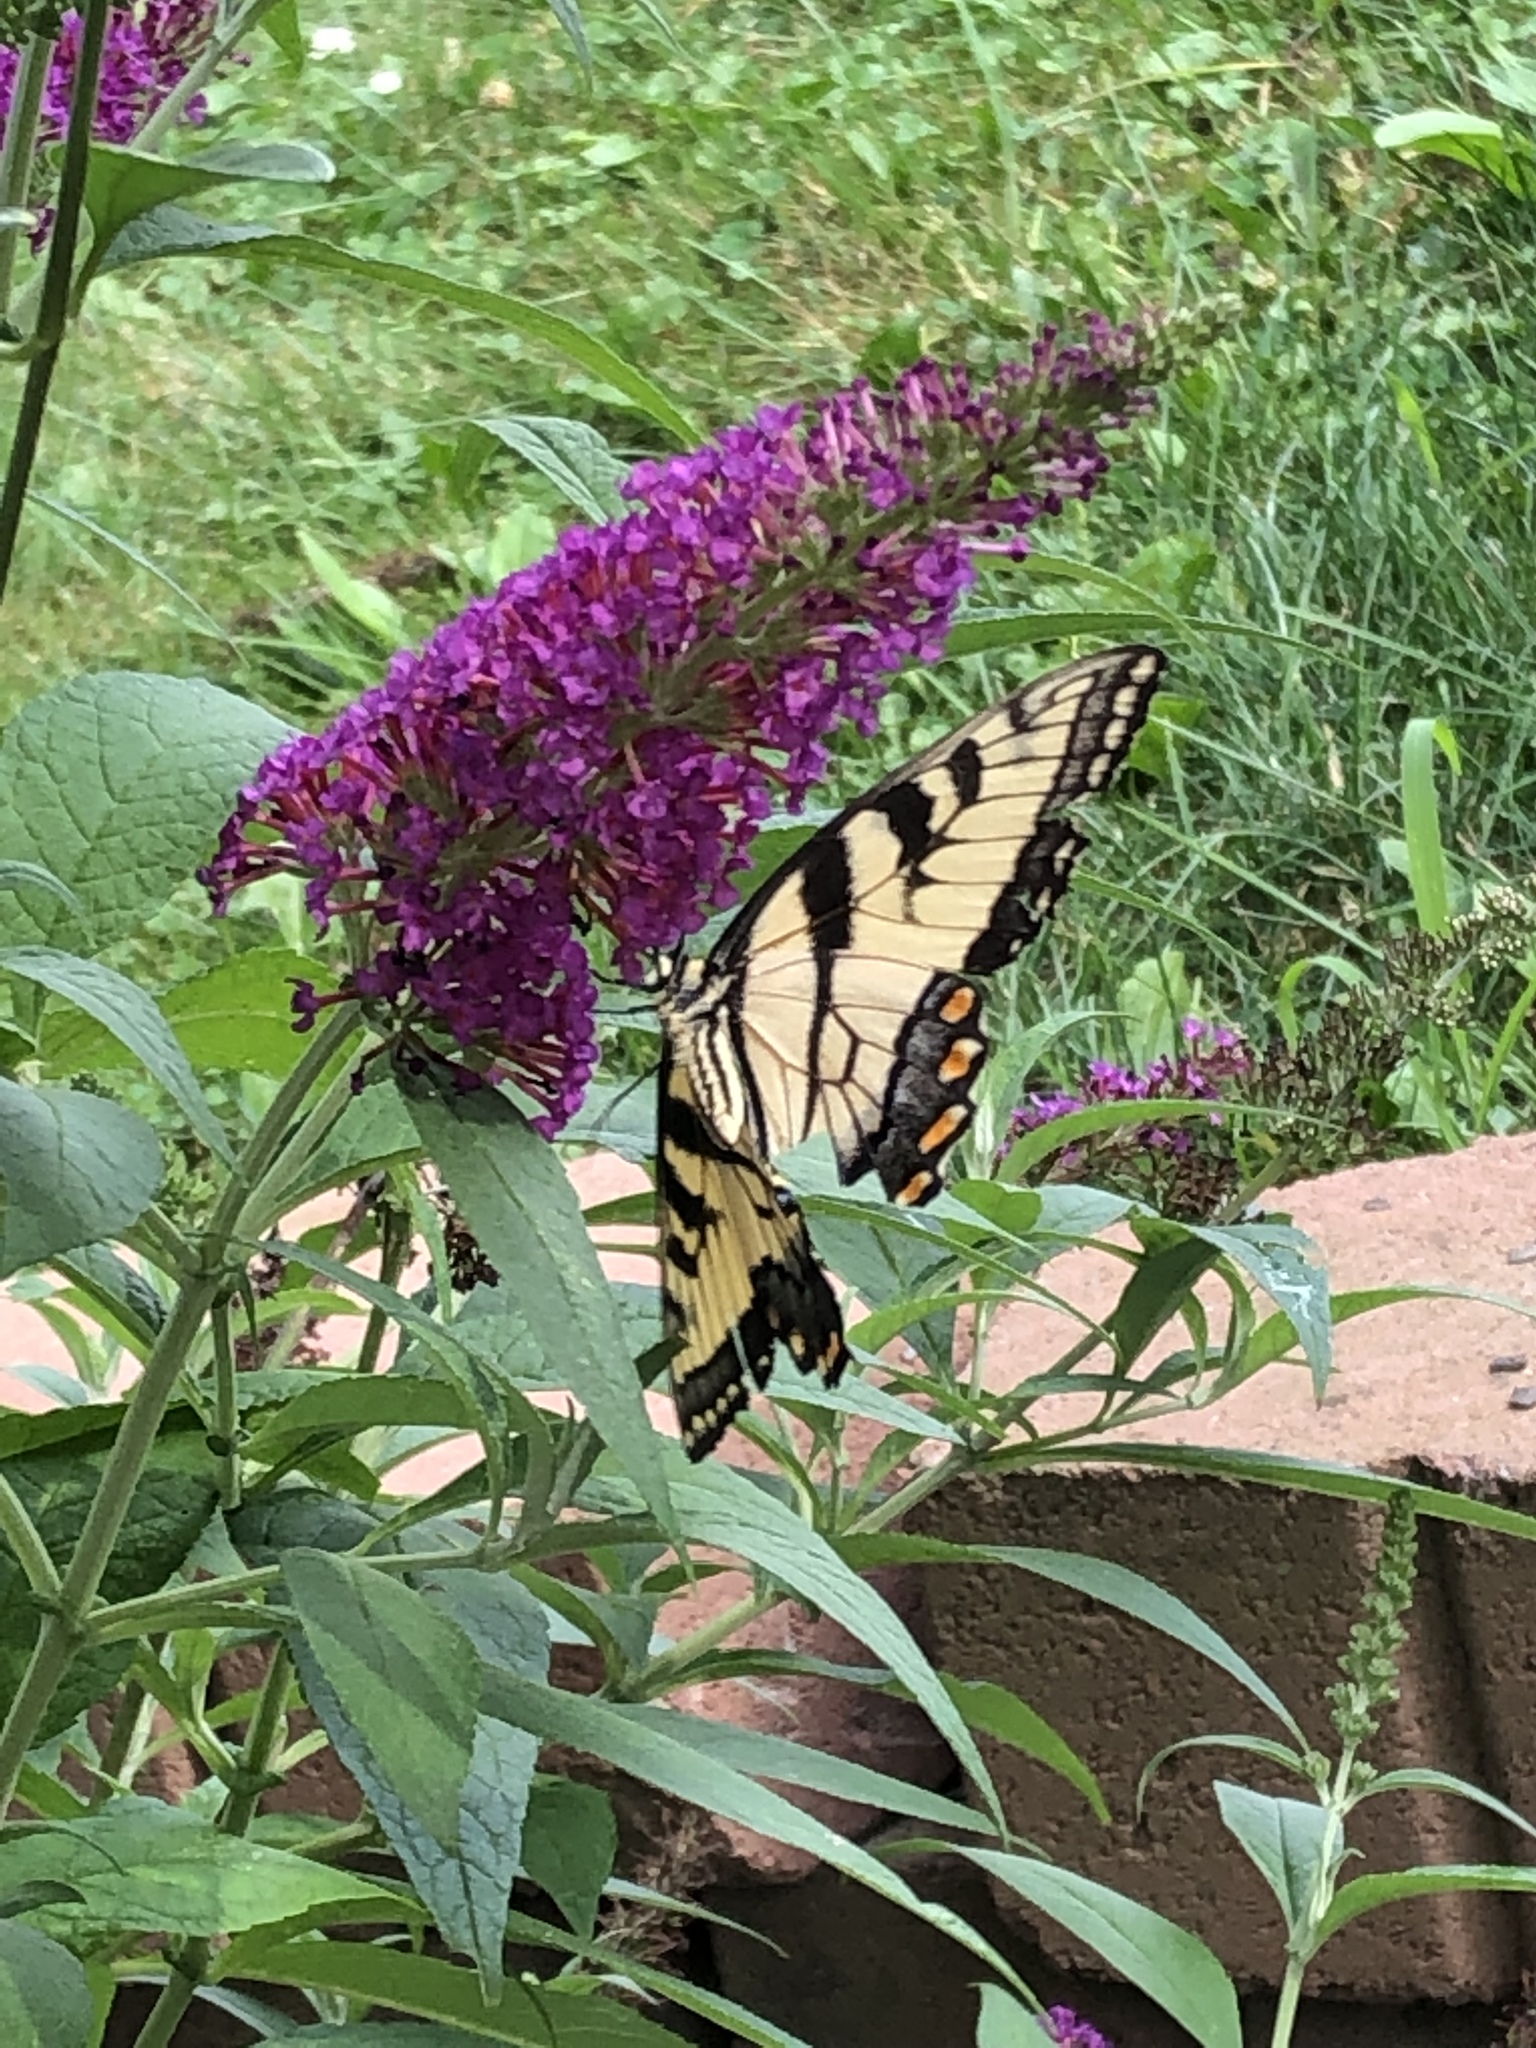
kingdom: Animalia
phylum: Arthropoda
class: Insecta
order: Lepidoptera
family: Papilionidae
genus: Papilio
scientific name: Papilio glaucus
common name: Tiger swallowtail
